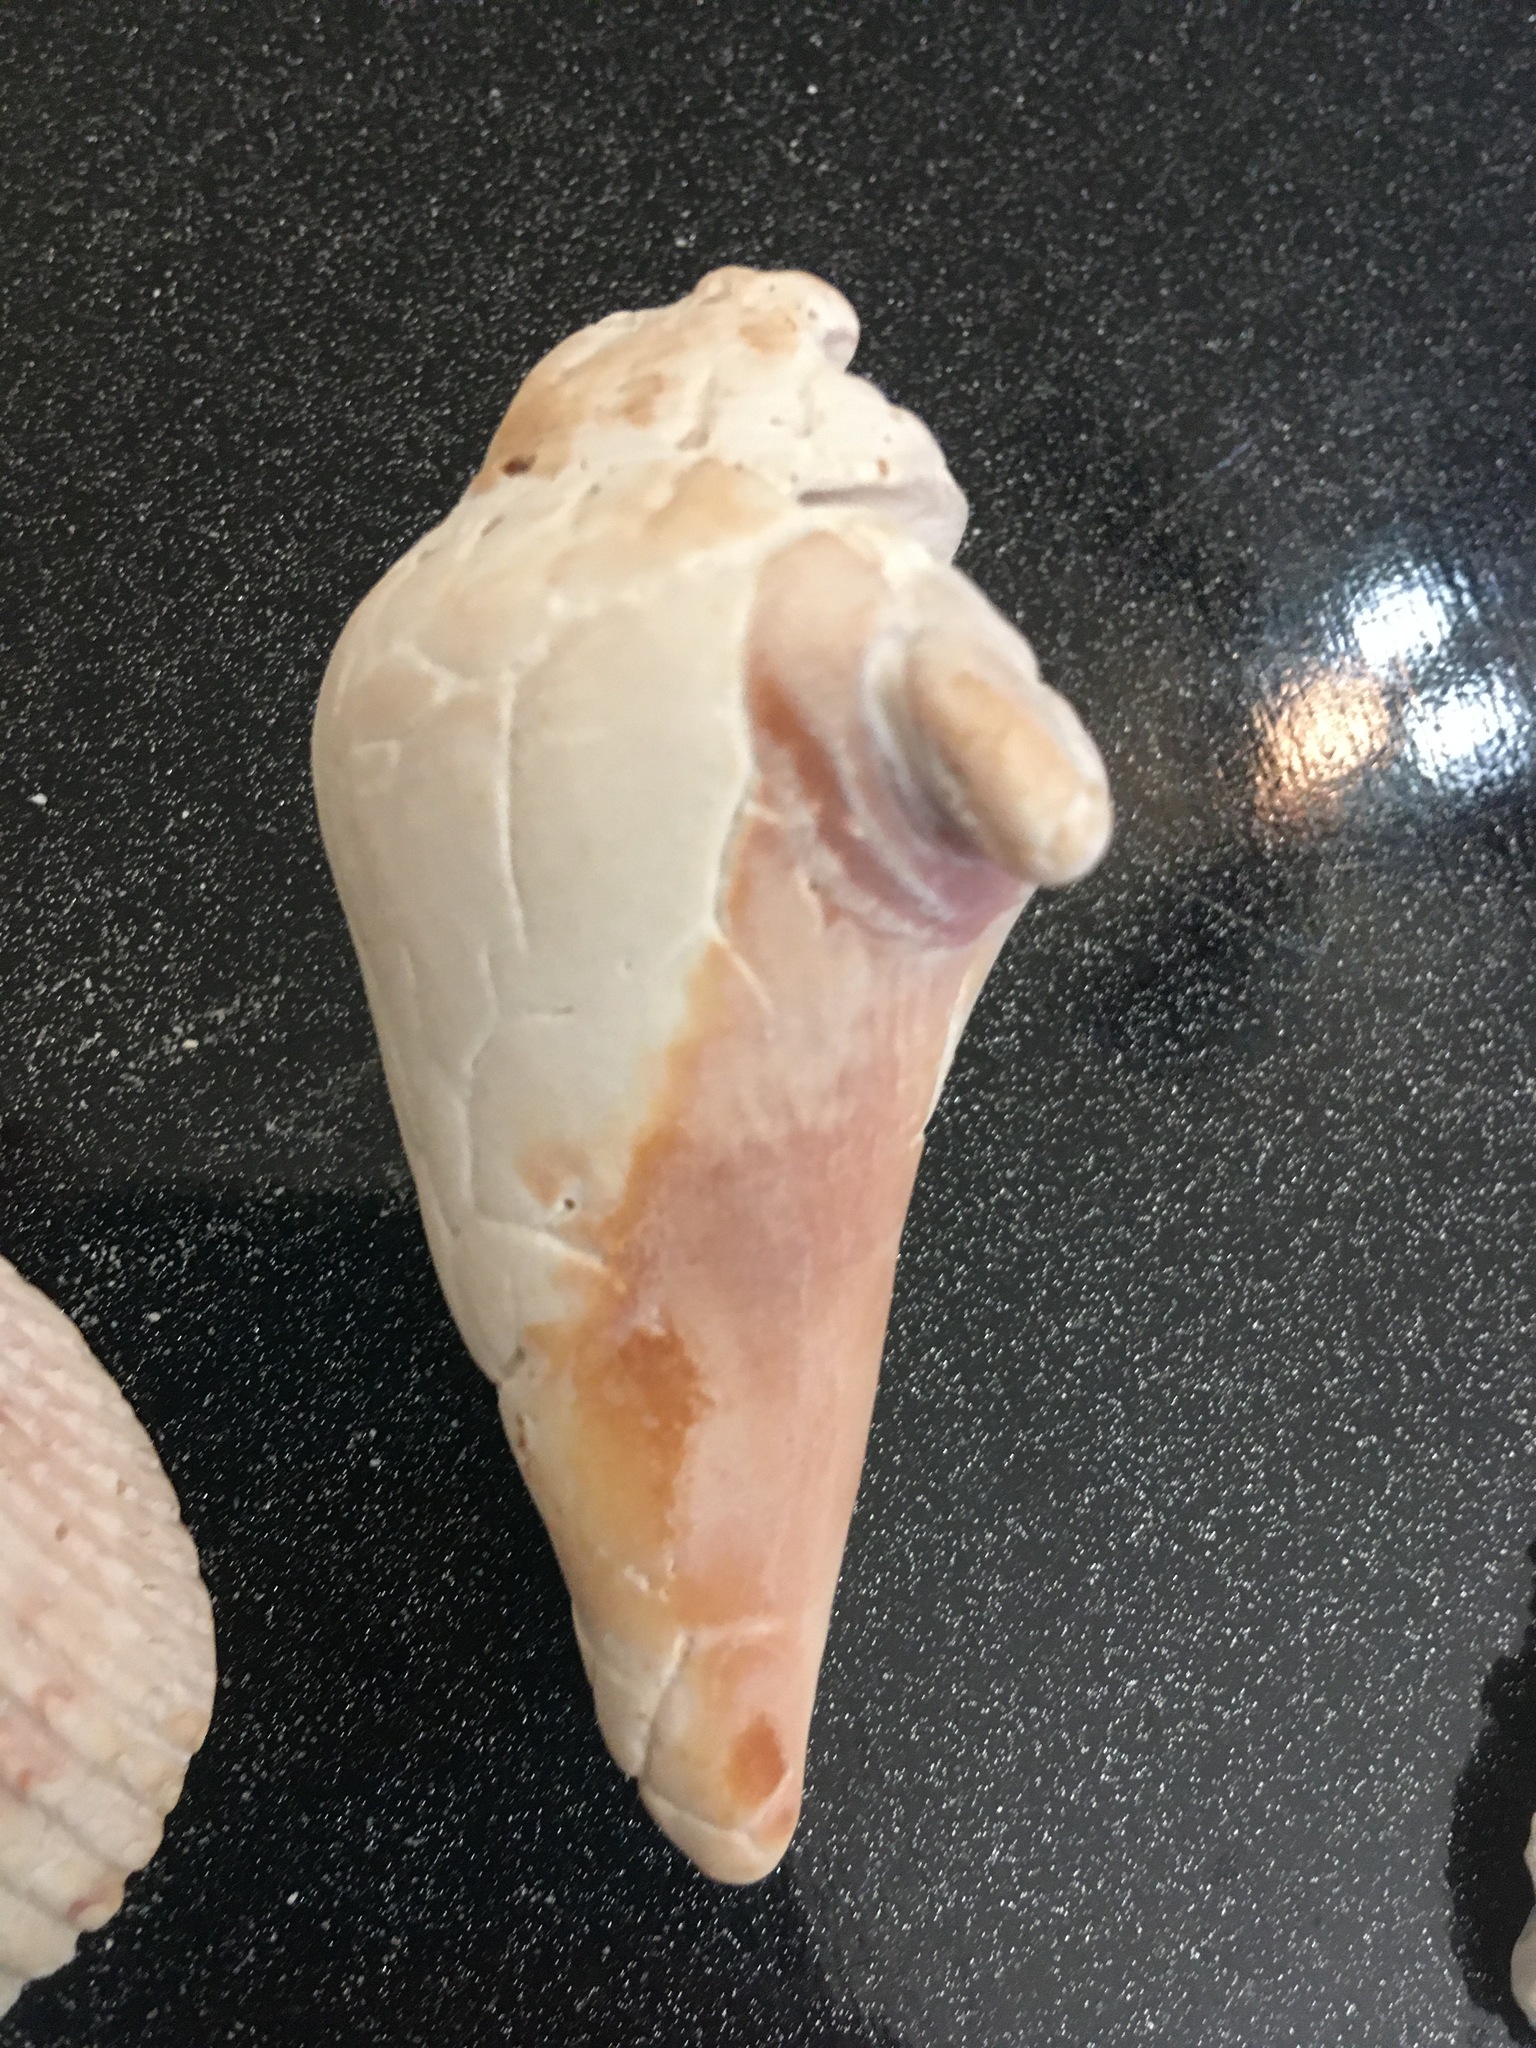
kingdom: Animalia
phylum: Mollusca
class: Gastropoda
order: Littorinimorpha
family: Strombidae
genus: Strombus
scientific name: Strombus alatus
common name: Florida fighting conch
